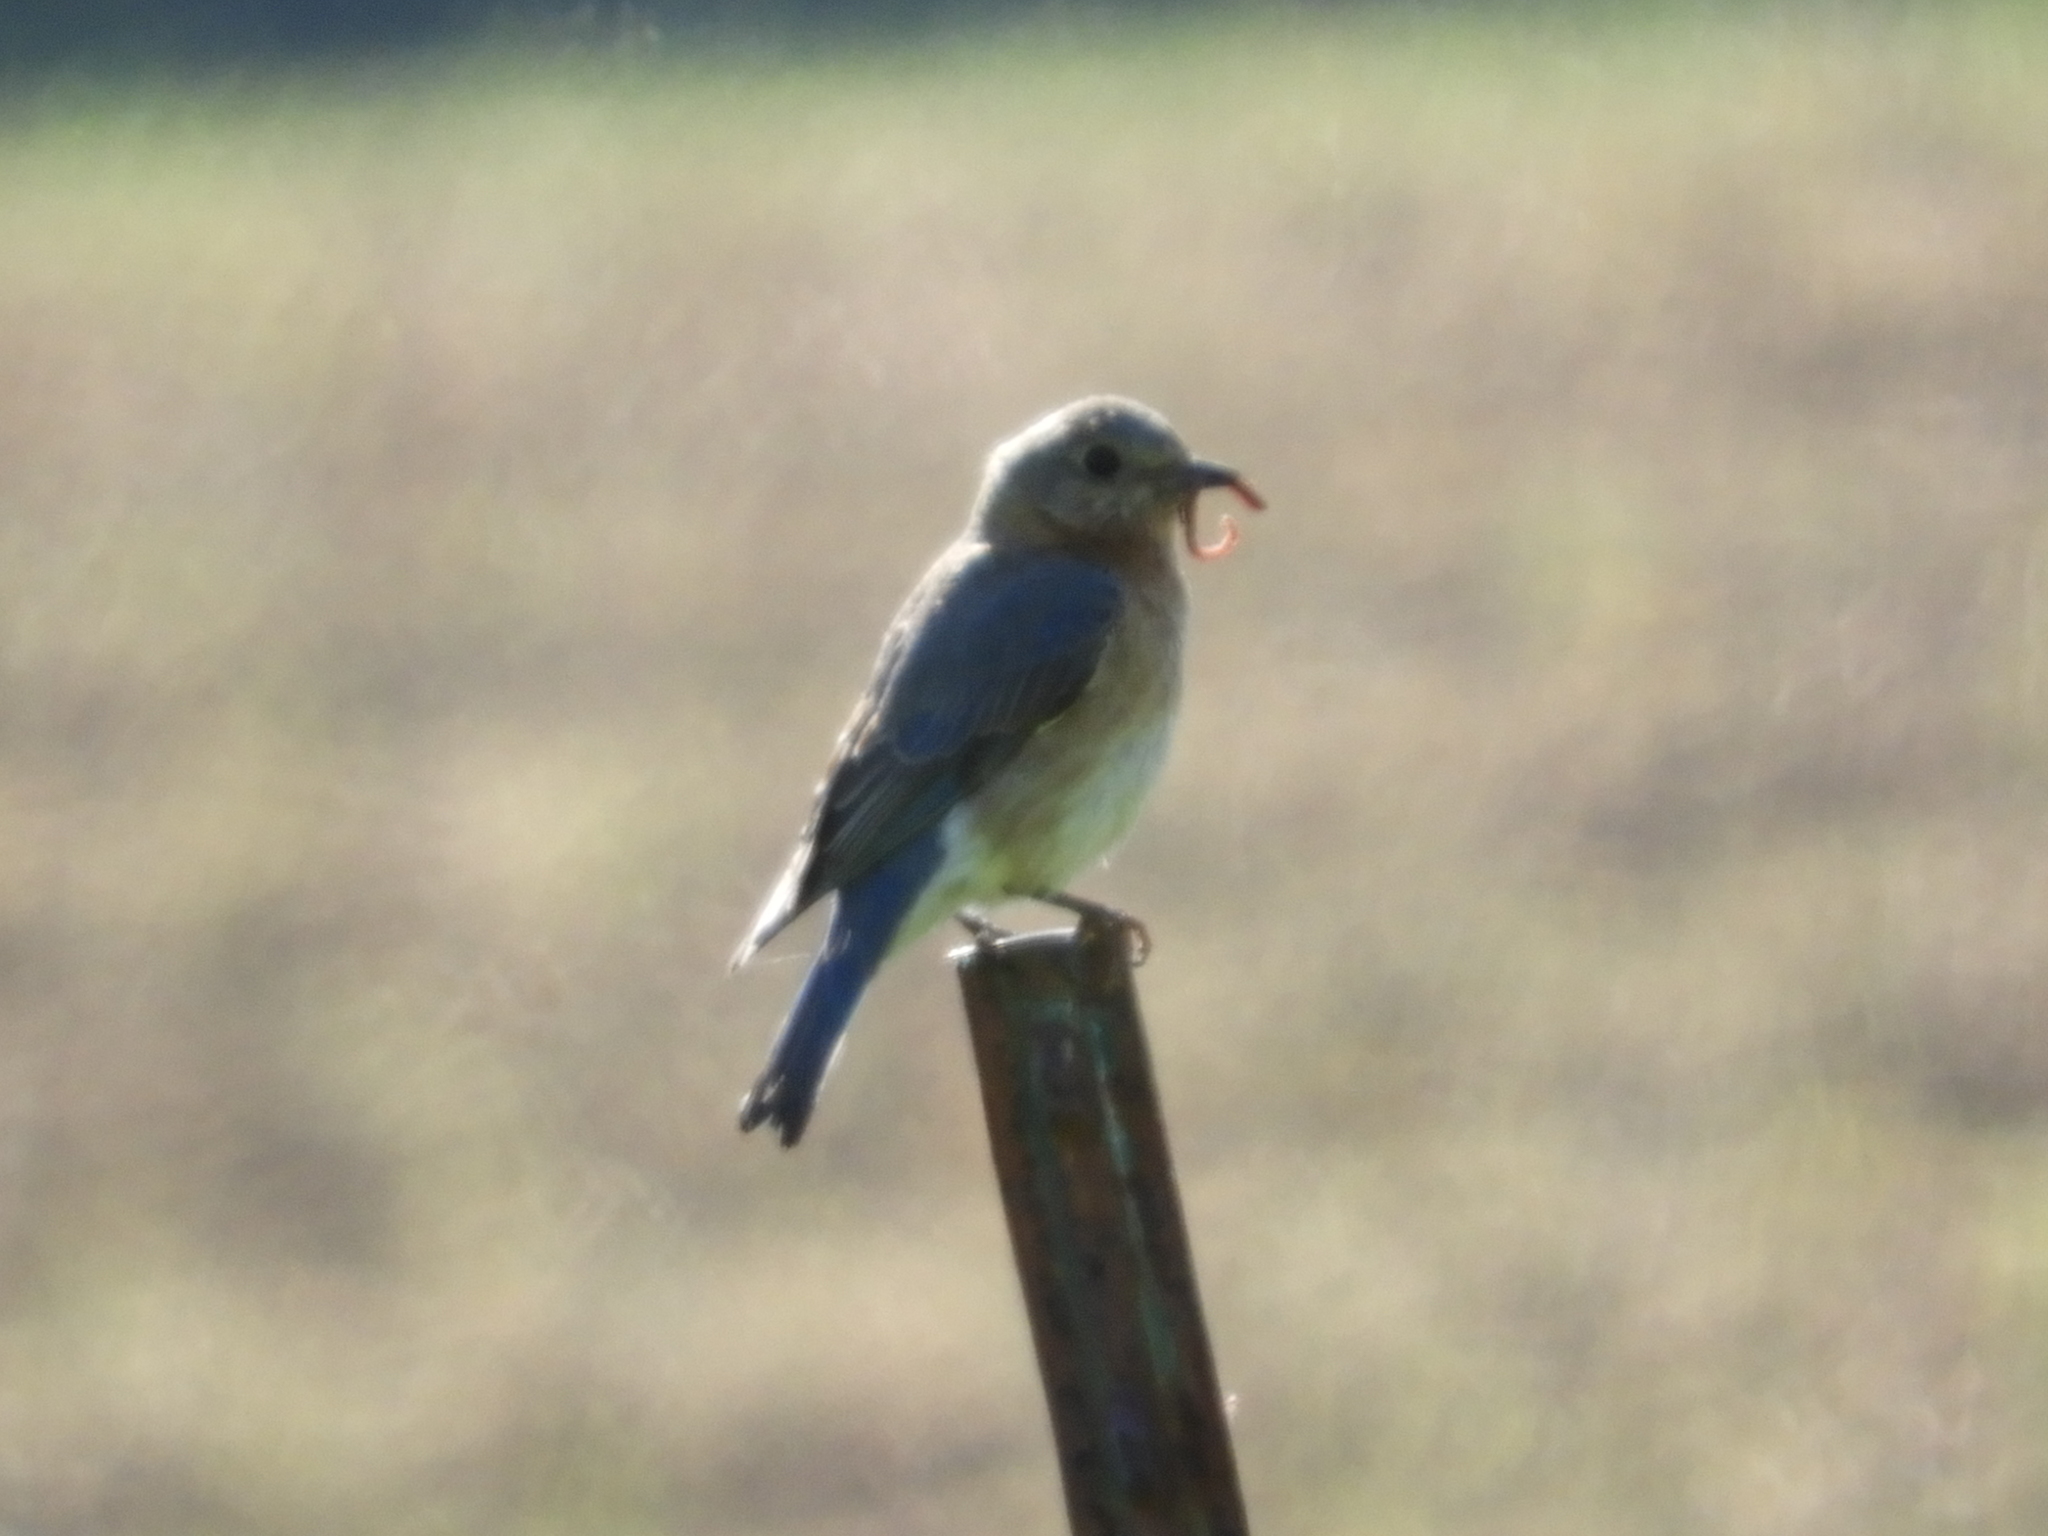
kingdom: Animalia
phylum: Chordata
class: Aves
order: Passeriformes
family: Turdidae
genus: Sialia
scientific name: Sialia sialis
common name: Eastern bluebird
